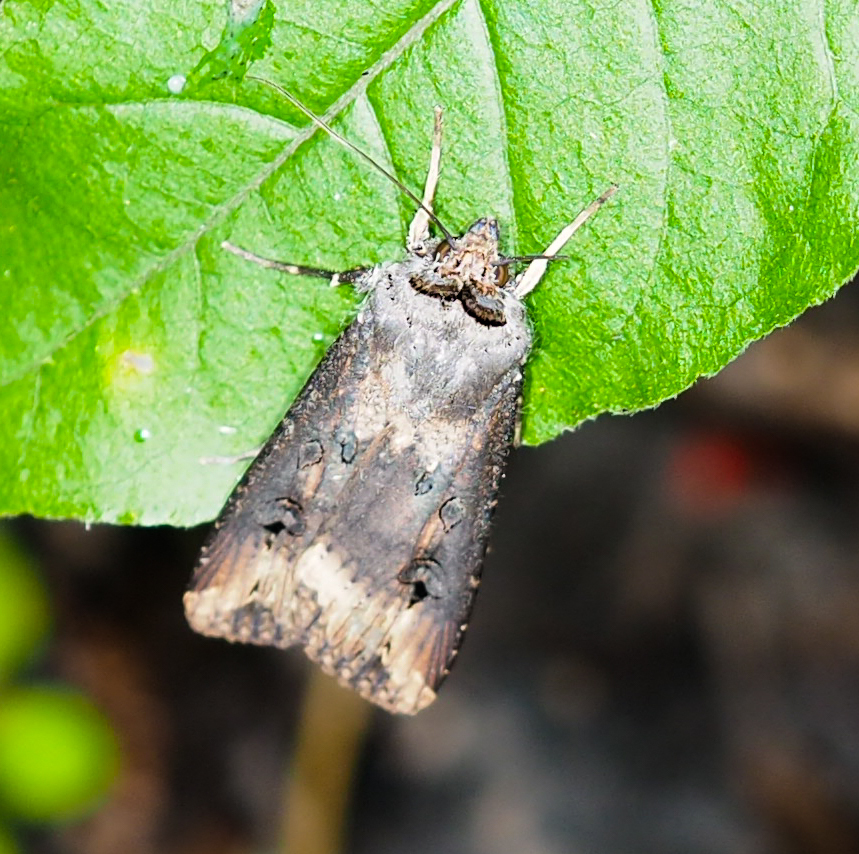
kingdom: Animalia
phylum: Arthropoda
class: Insecta
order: Lepidoptera
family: Noctuidae
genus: Agrotis
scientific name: Agrotis ipsilon
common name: Dark sword-grass
